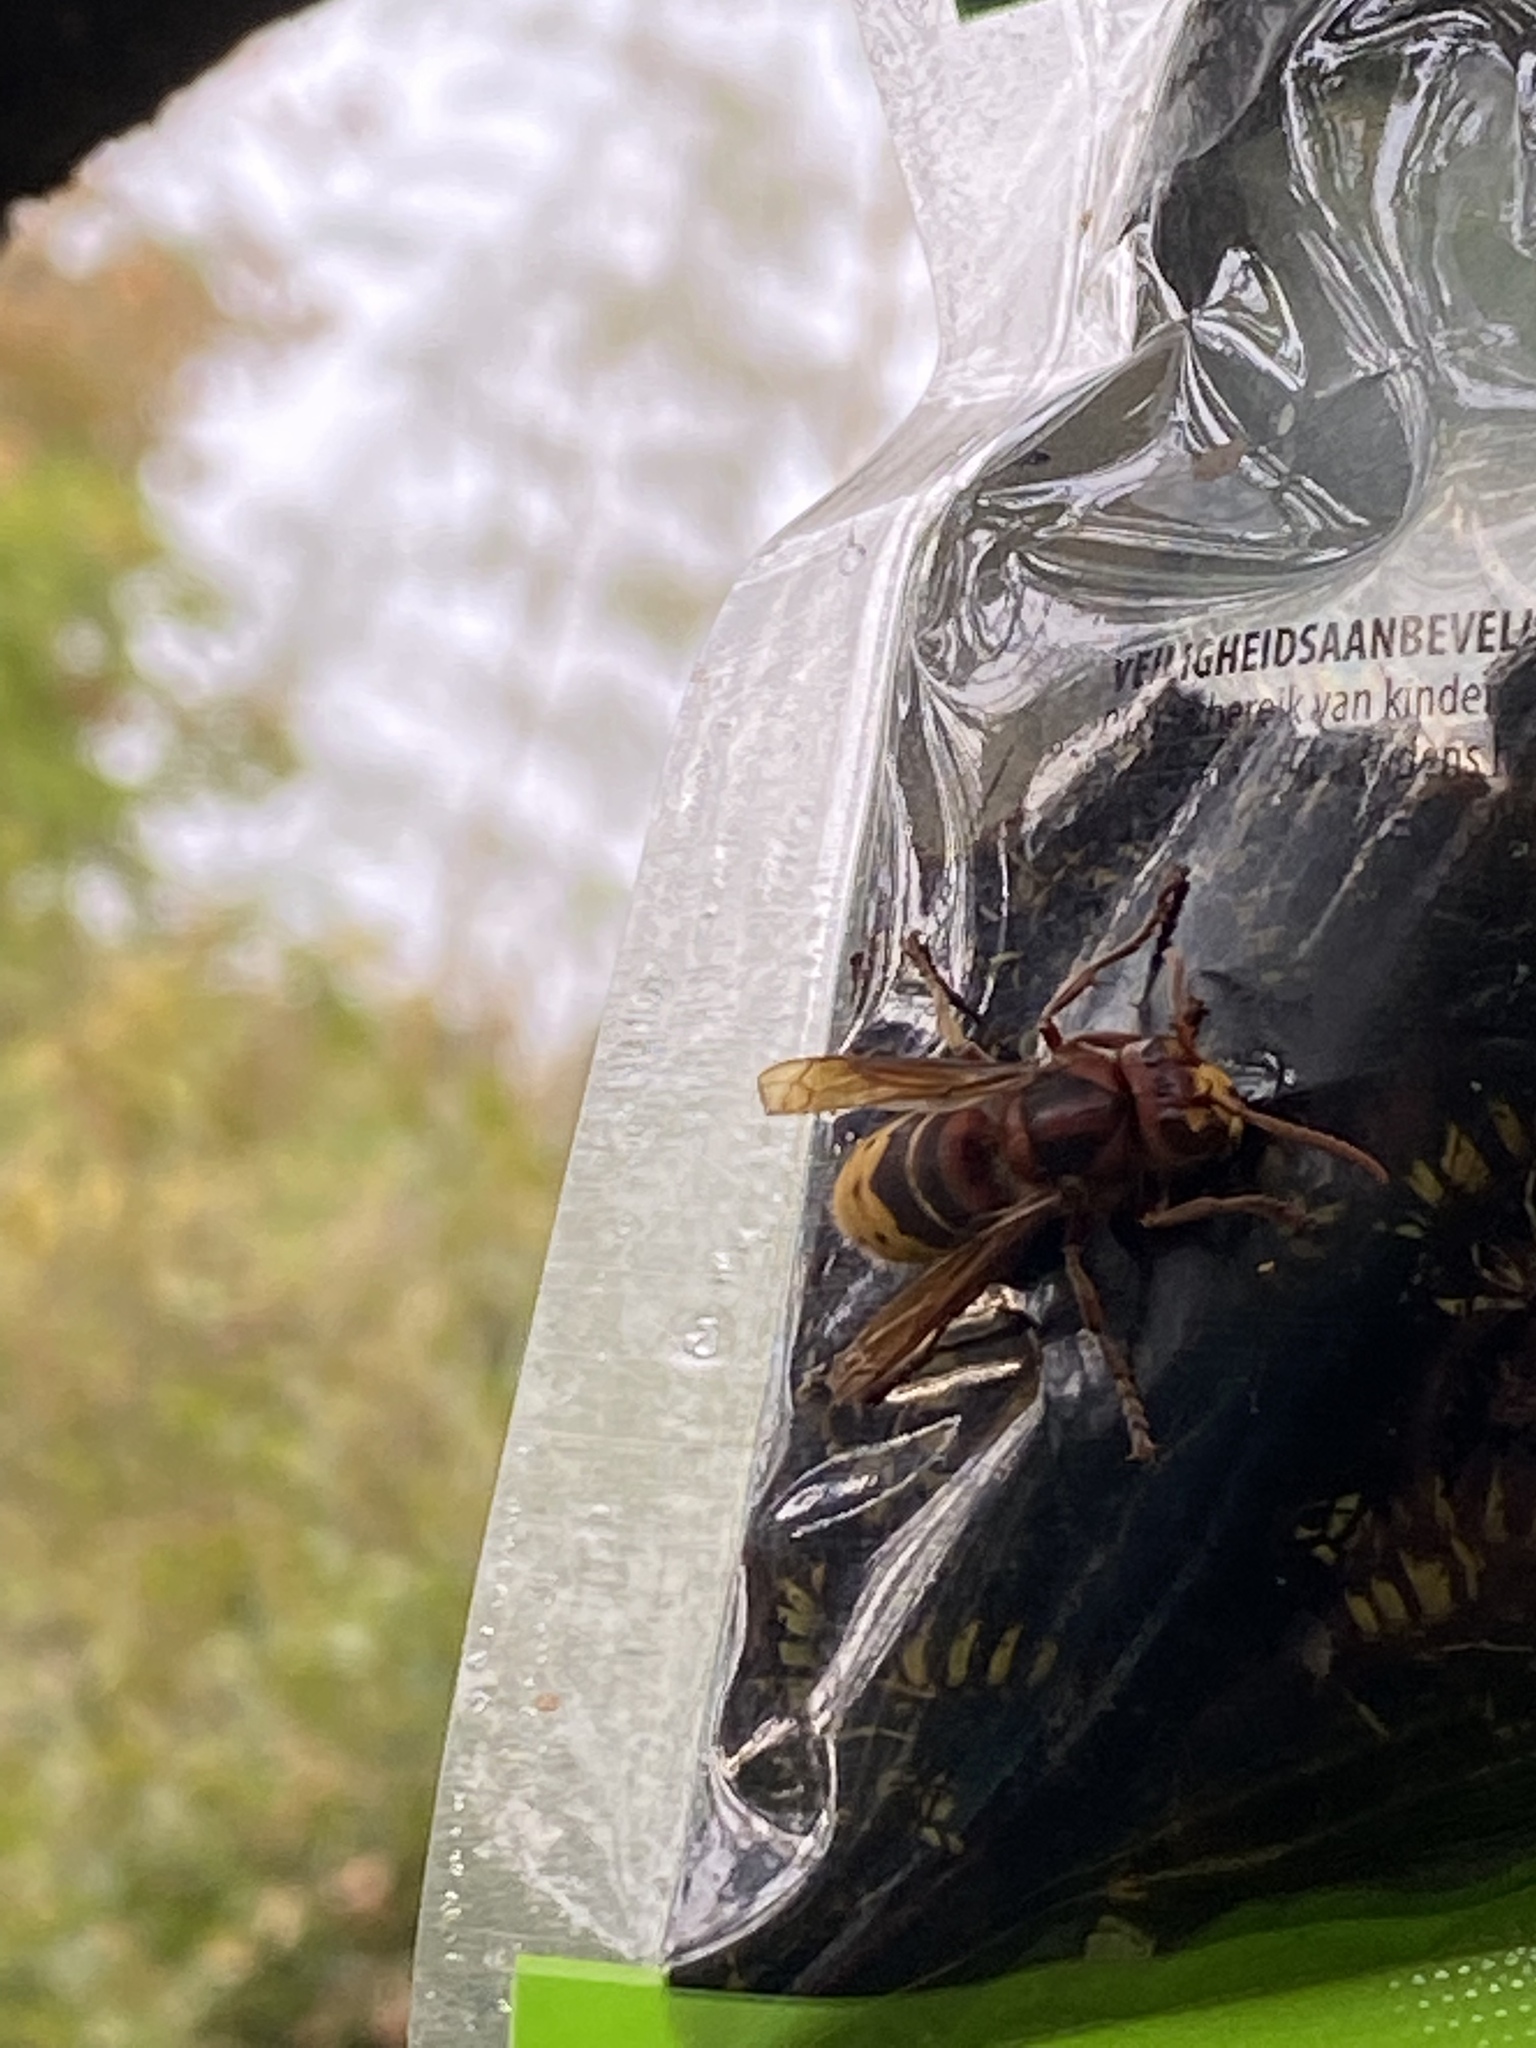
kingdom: Animalia
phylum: Arthropoda
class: Insecta
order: Hymenoptera
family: Vespidae
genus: Vespa
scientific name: Vespa crabro
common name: Hornet
